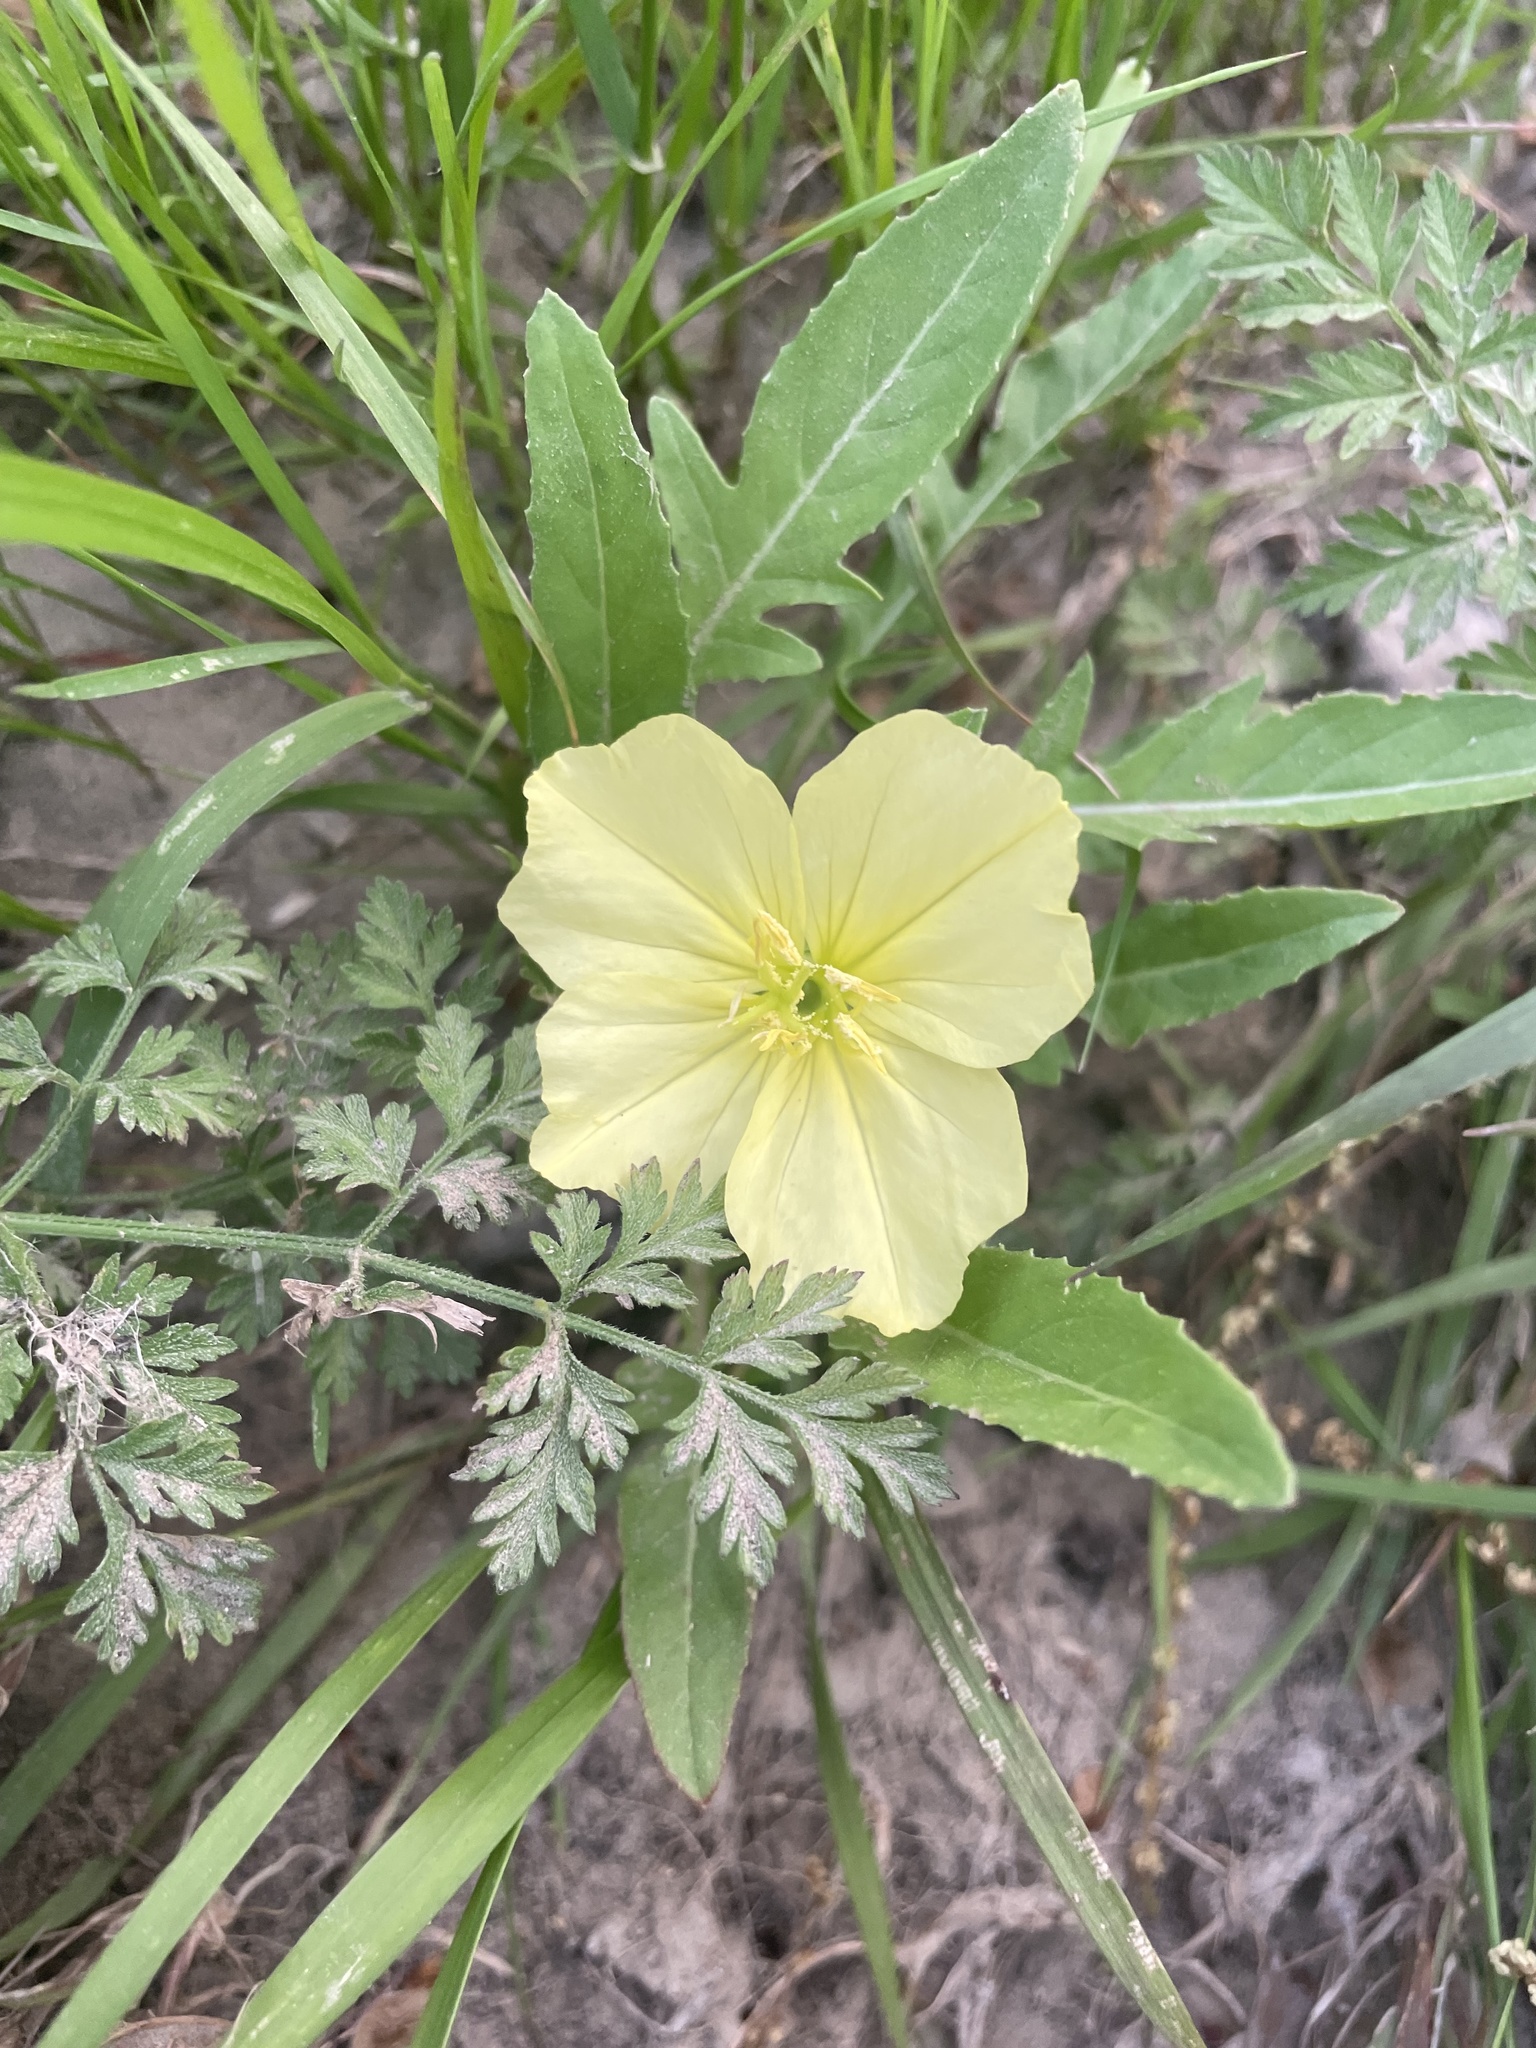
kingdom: Plantae
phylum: Tracheophyta
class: Magnoliopsida
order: Myrtales
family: Onagraceae
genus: Oenothera
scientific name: Oenothera triloba
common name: Sessile evening-primrose
